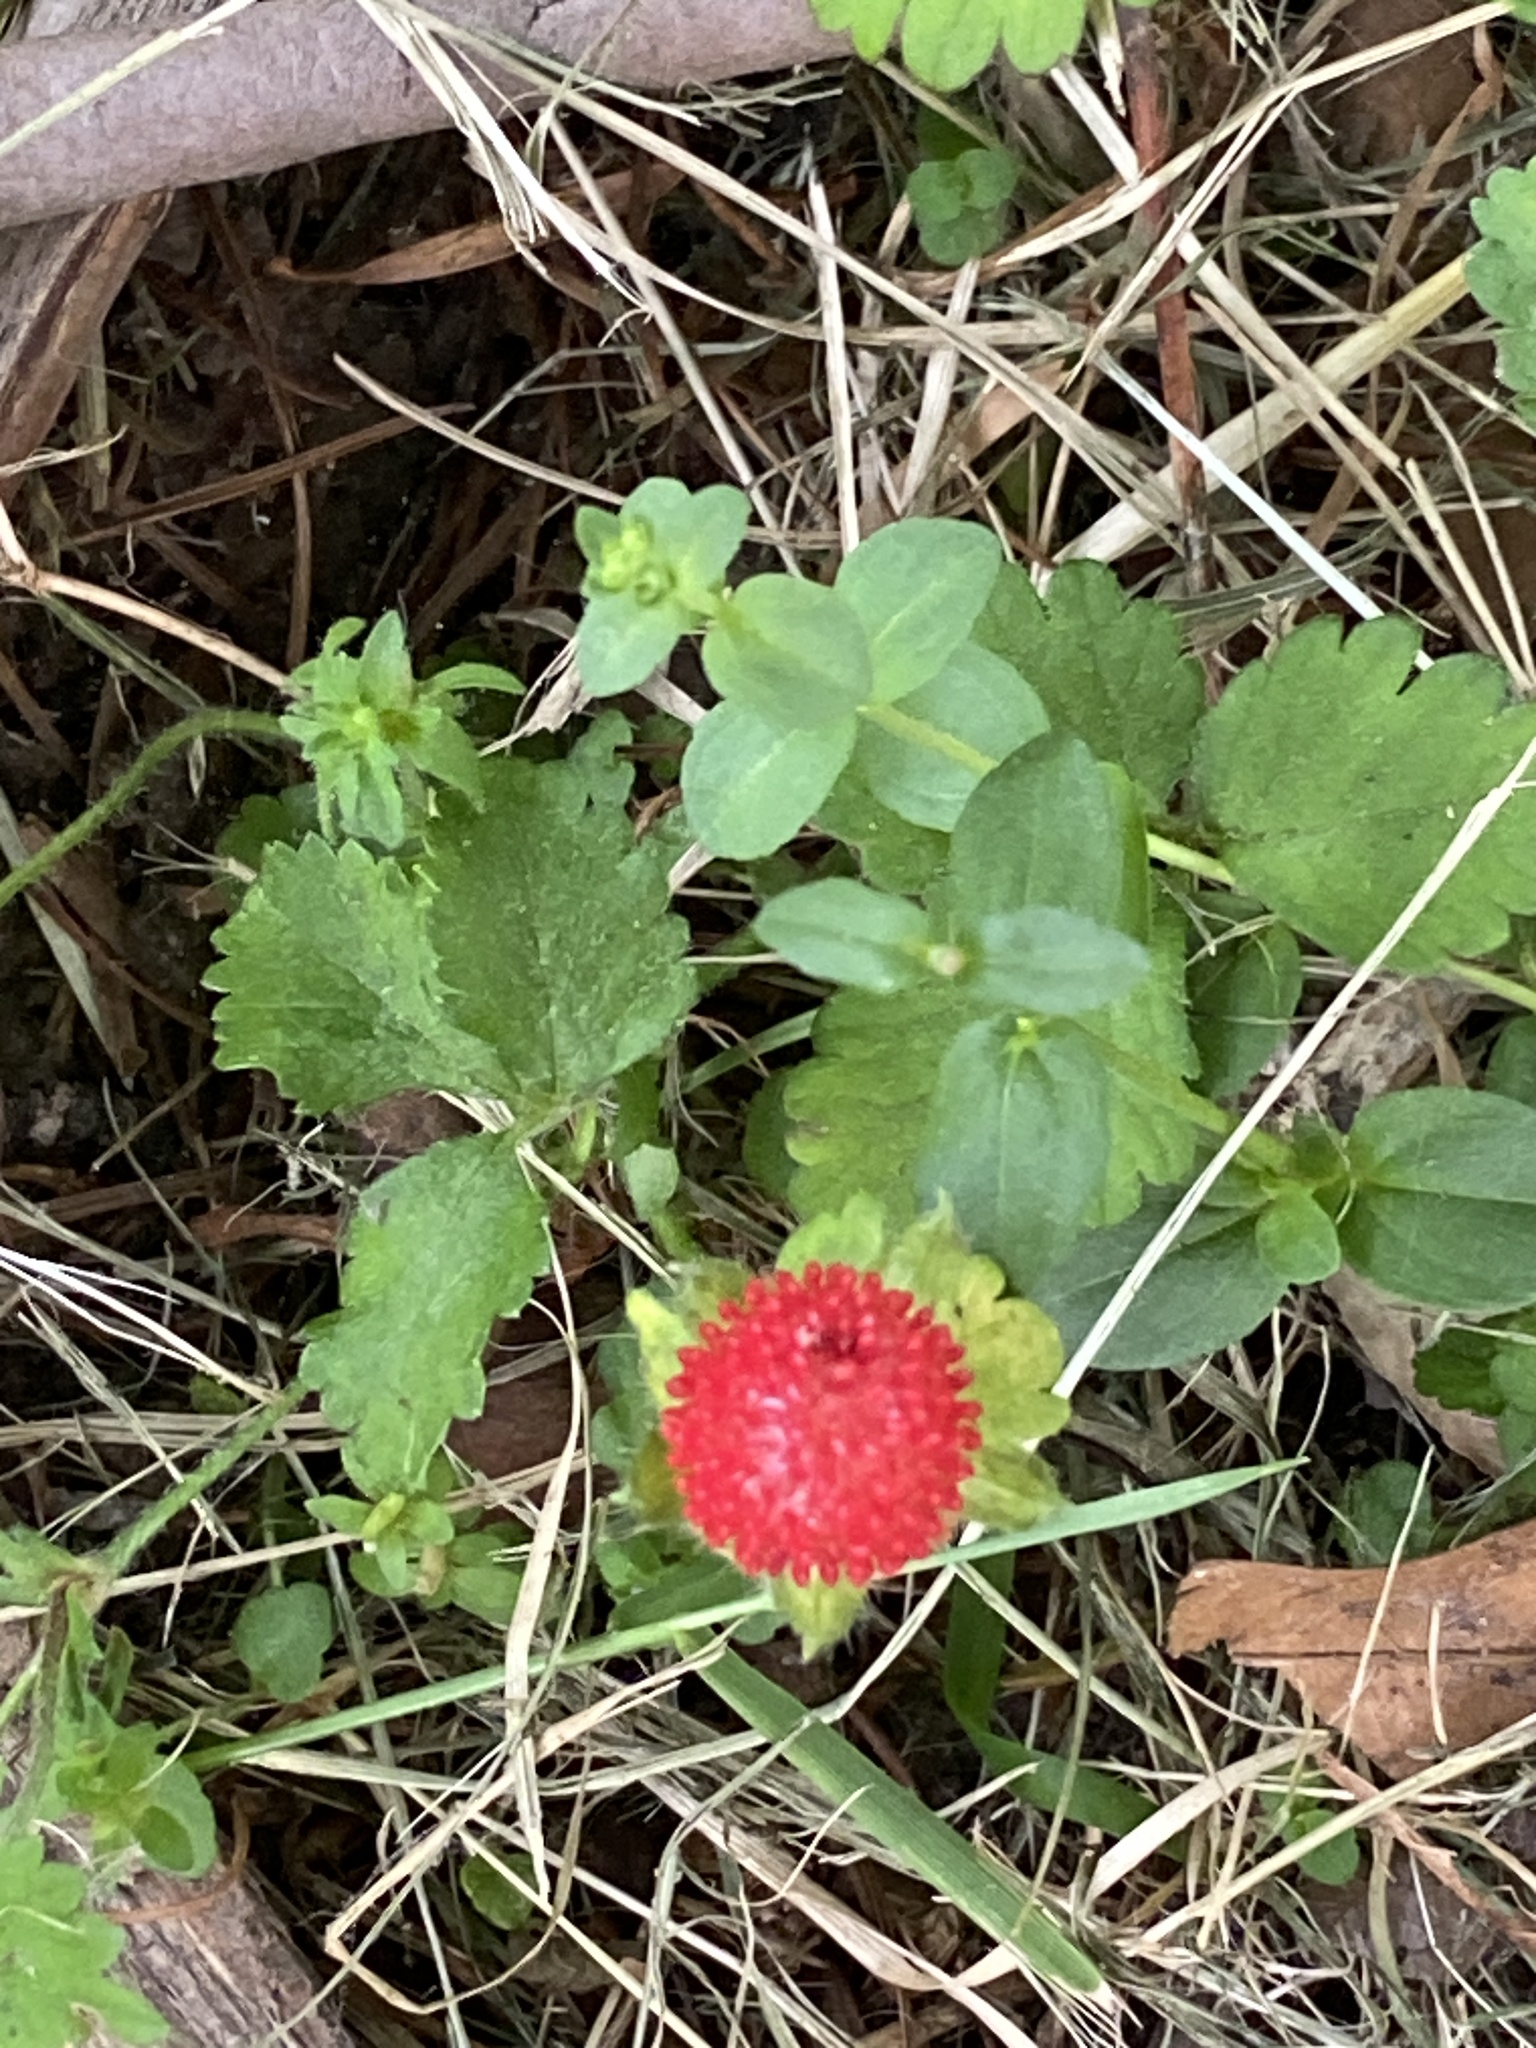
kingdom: Plantae
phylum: Tracheophyta
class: Magnoliopsida
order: Rosales
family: Rosaceae
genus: Potentilla
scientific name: Potentilla indica
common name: Yellow-flowered strawberry
